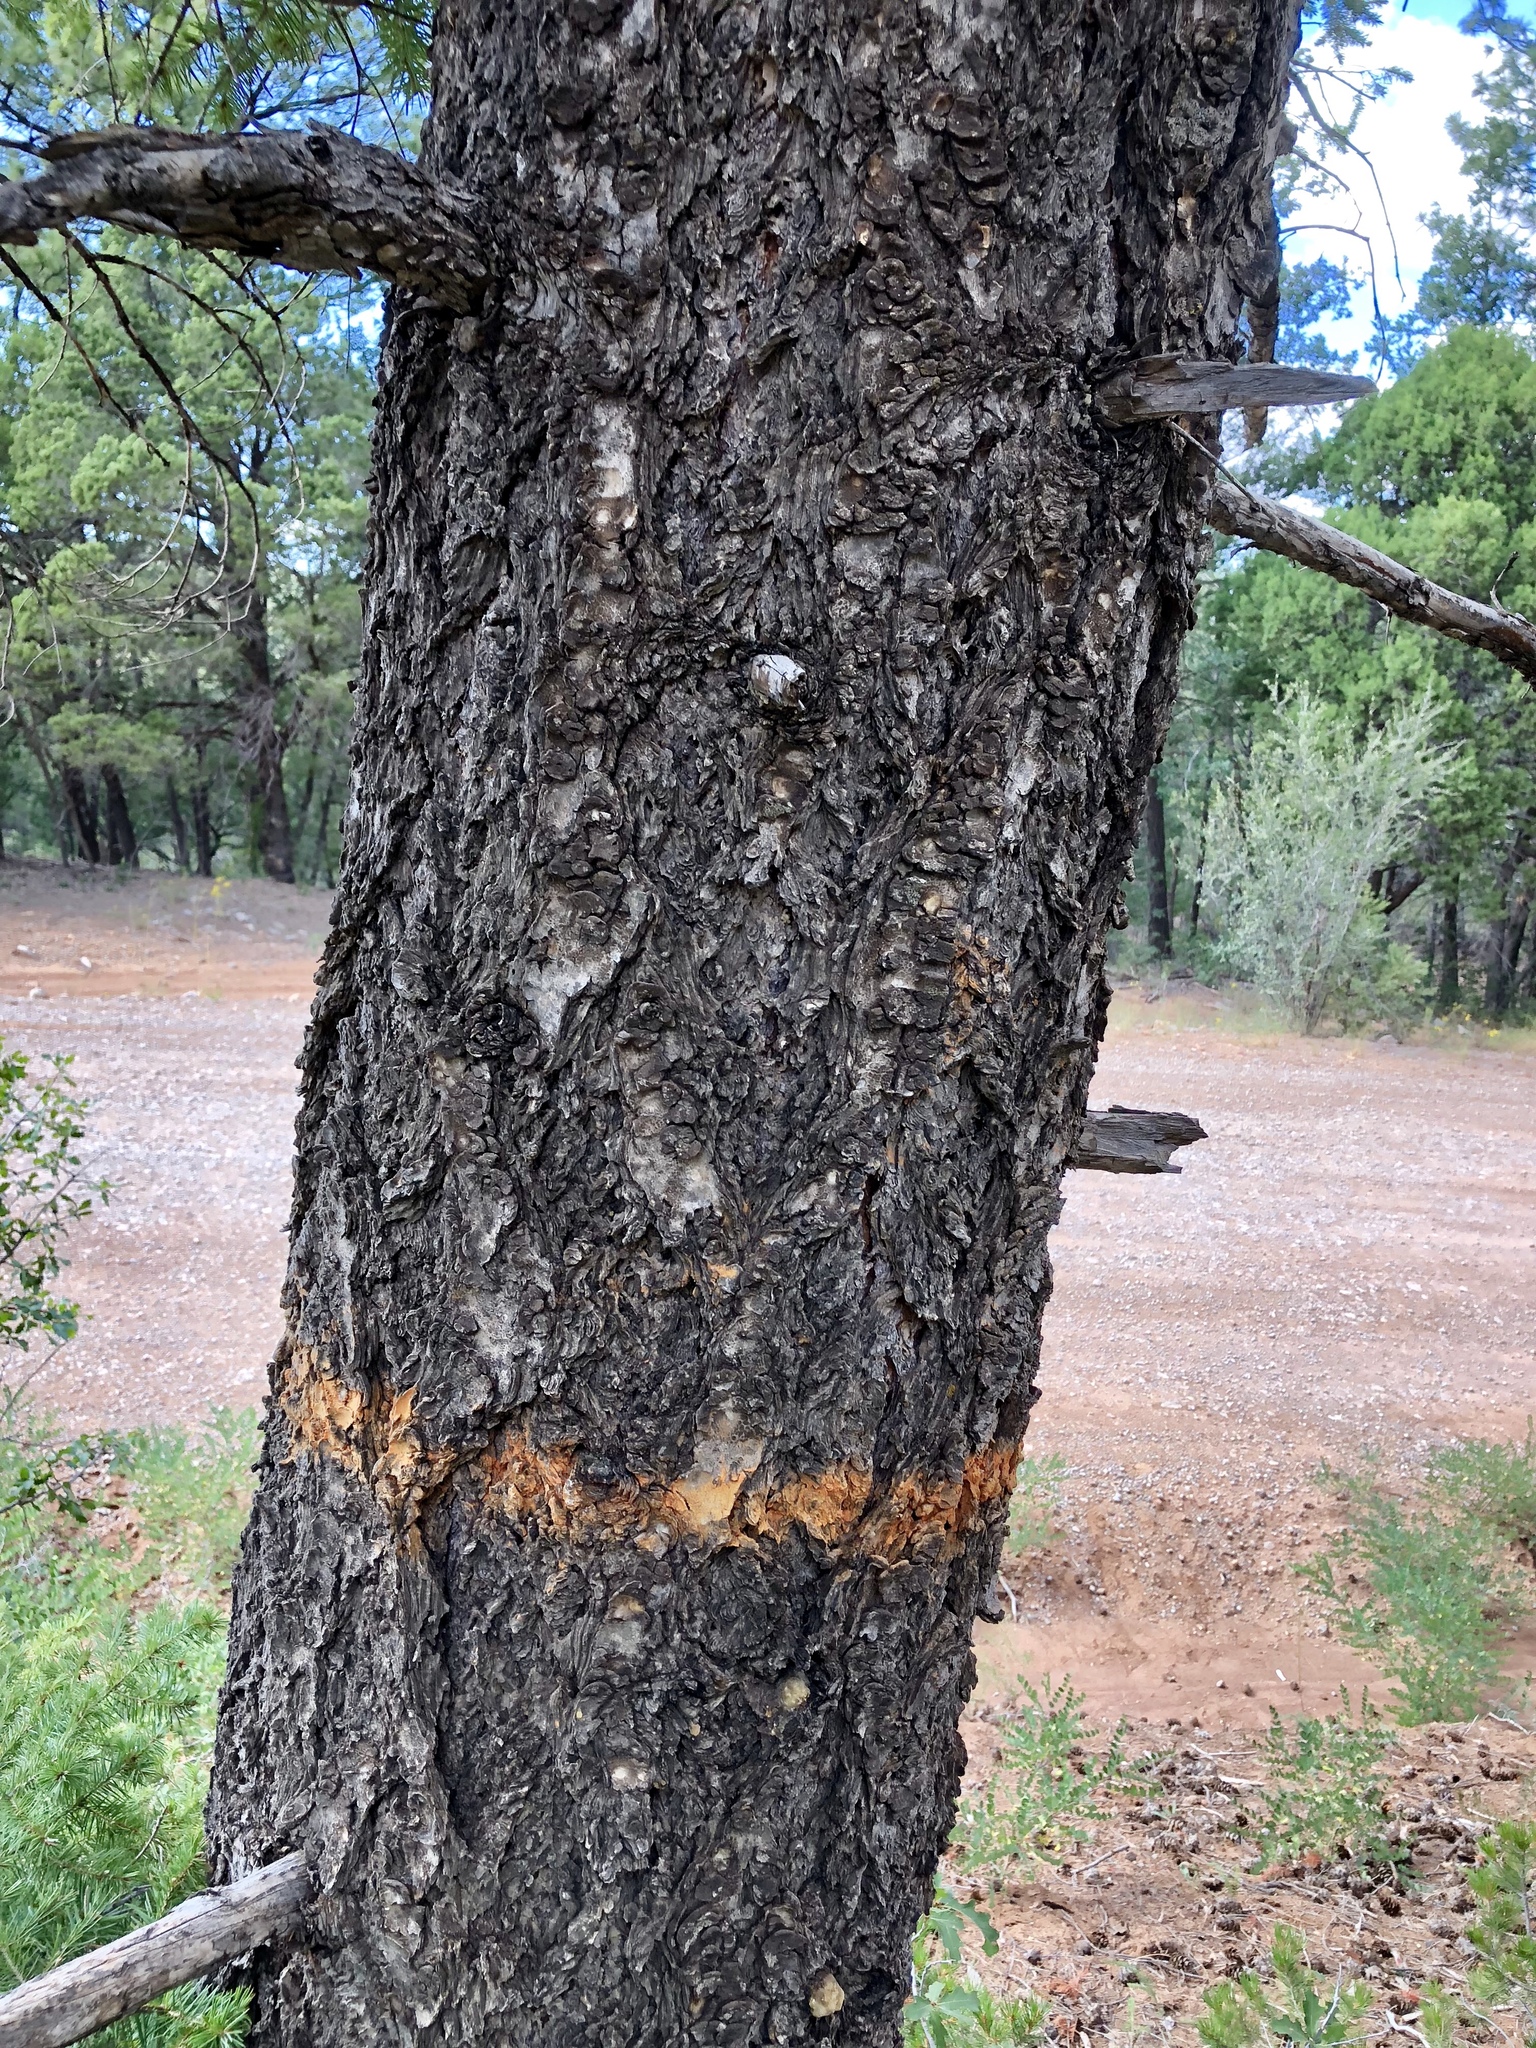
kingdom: Plantae
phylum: Tracheophyta
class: Pinopsida
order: Pinales
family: Pinaceae
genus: Pseudotsuga
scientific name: Pseudotsuga menziesii
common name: Douglas fir
